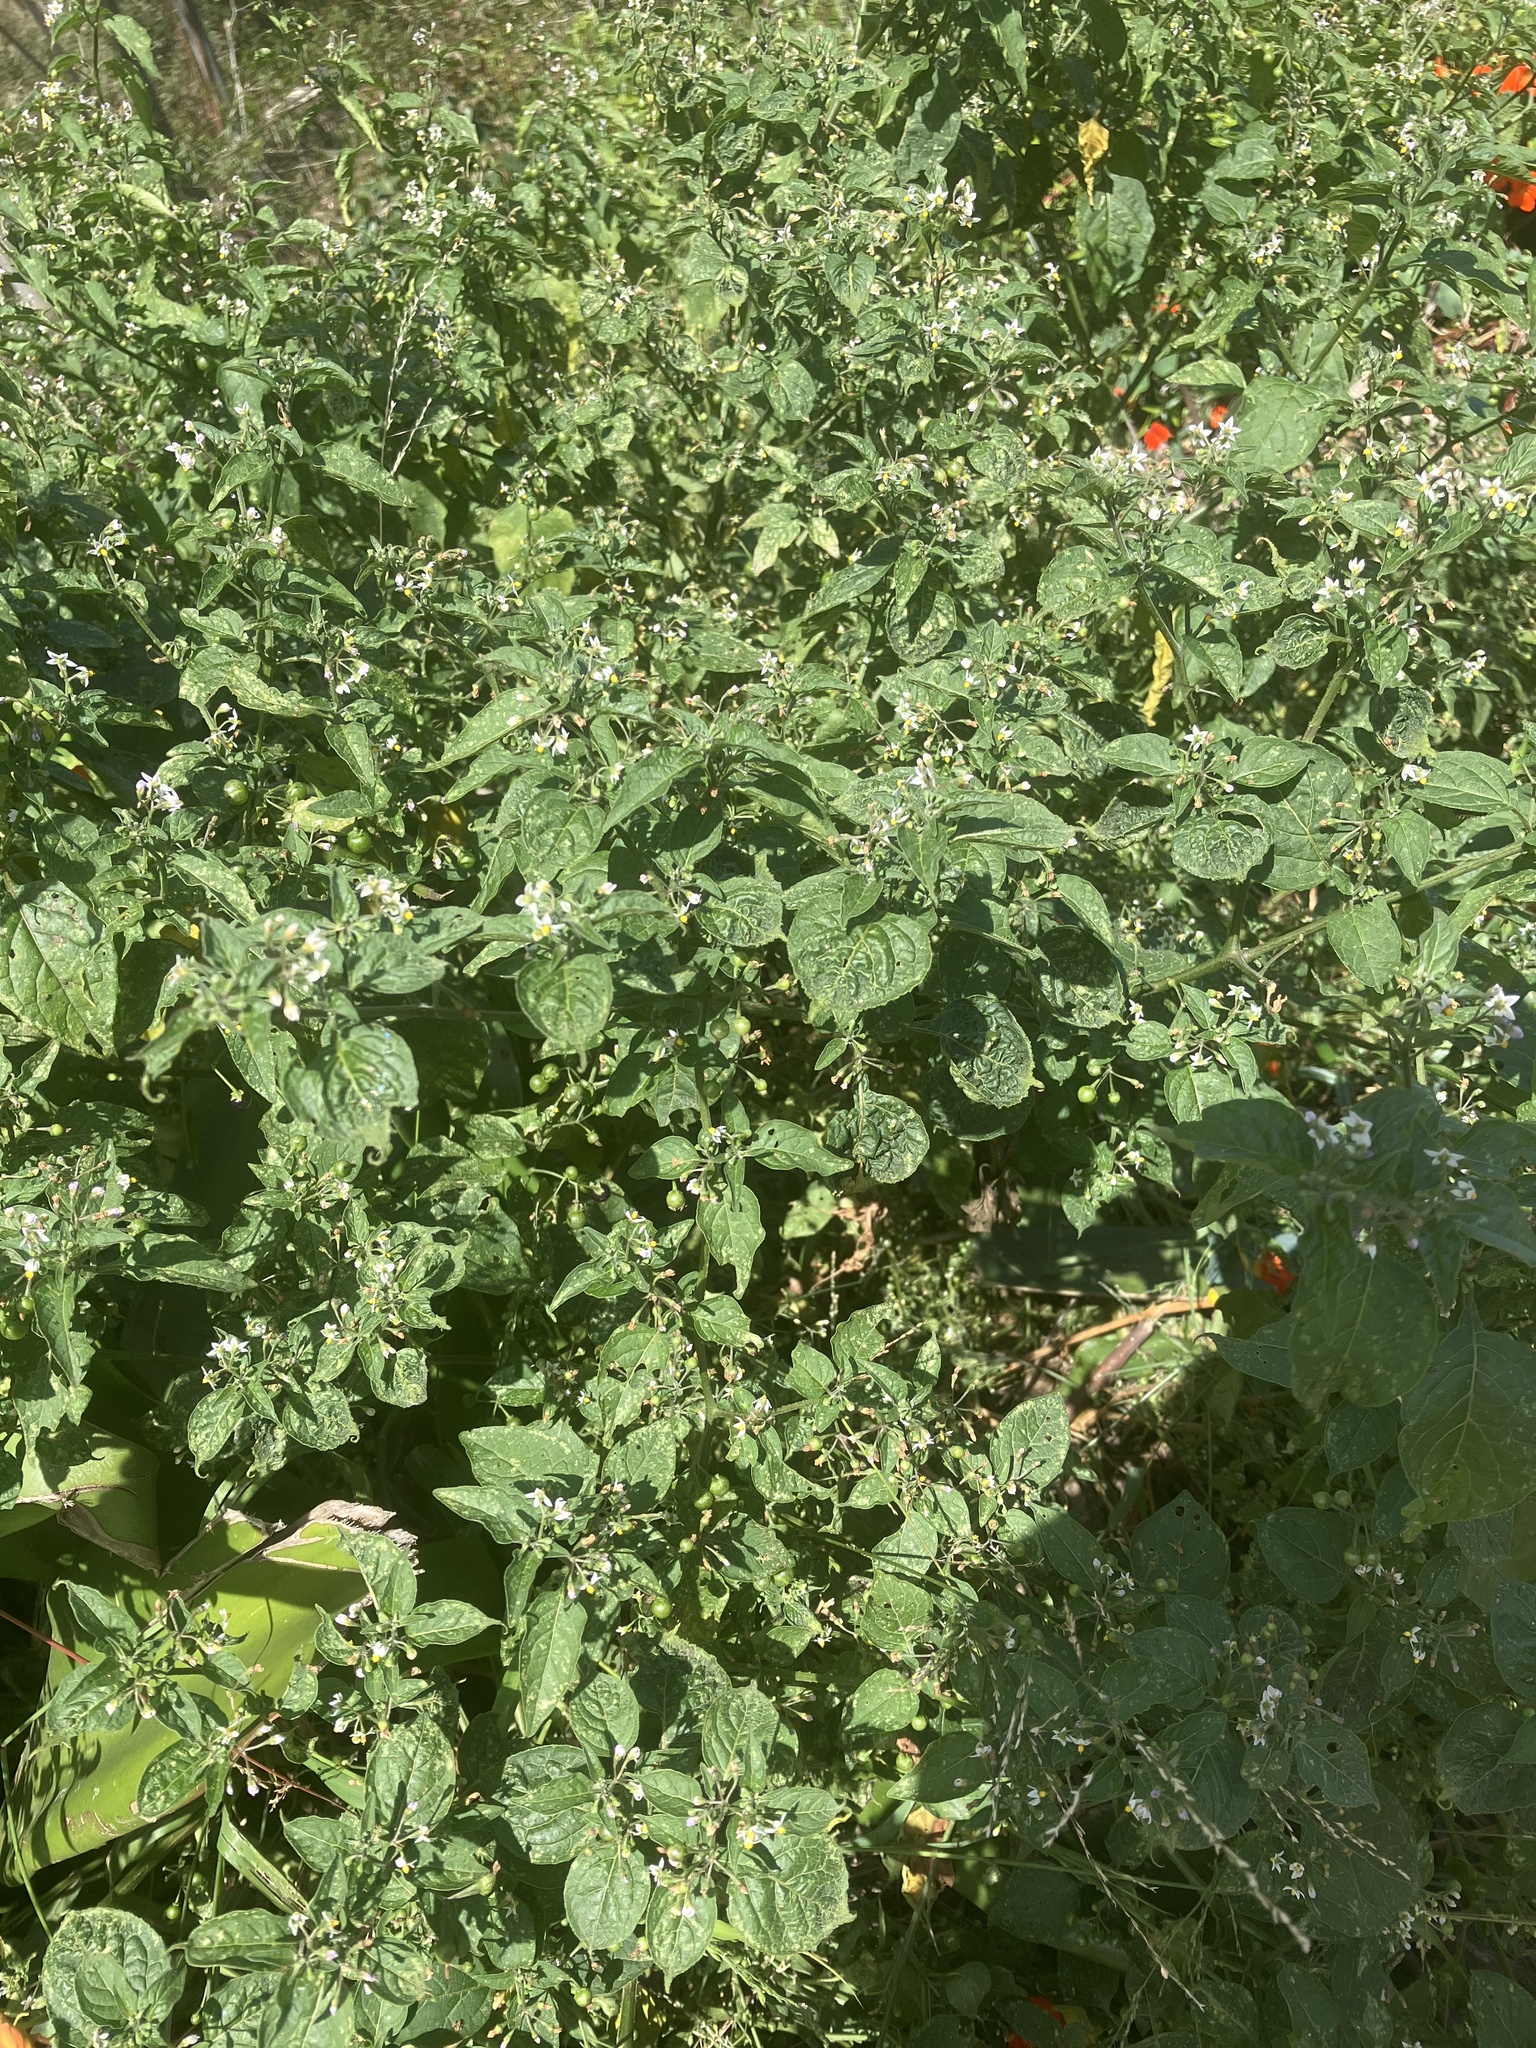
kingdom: Plantae
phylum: Tracheophyta
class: Magnoliopsida
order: Solanales
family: Solanaceae
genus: Solanum
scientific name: Solanum nigrum
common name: Black nightshade
